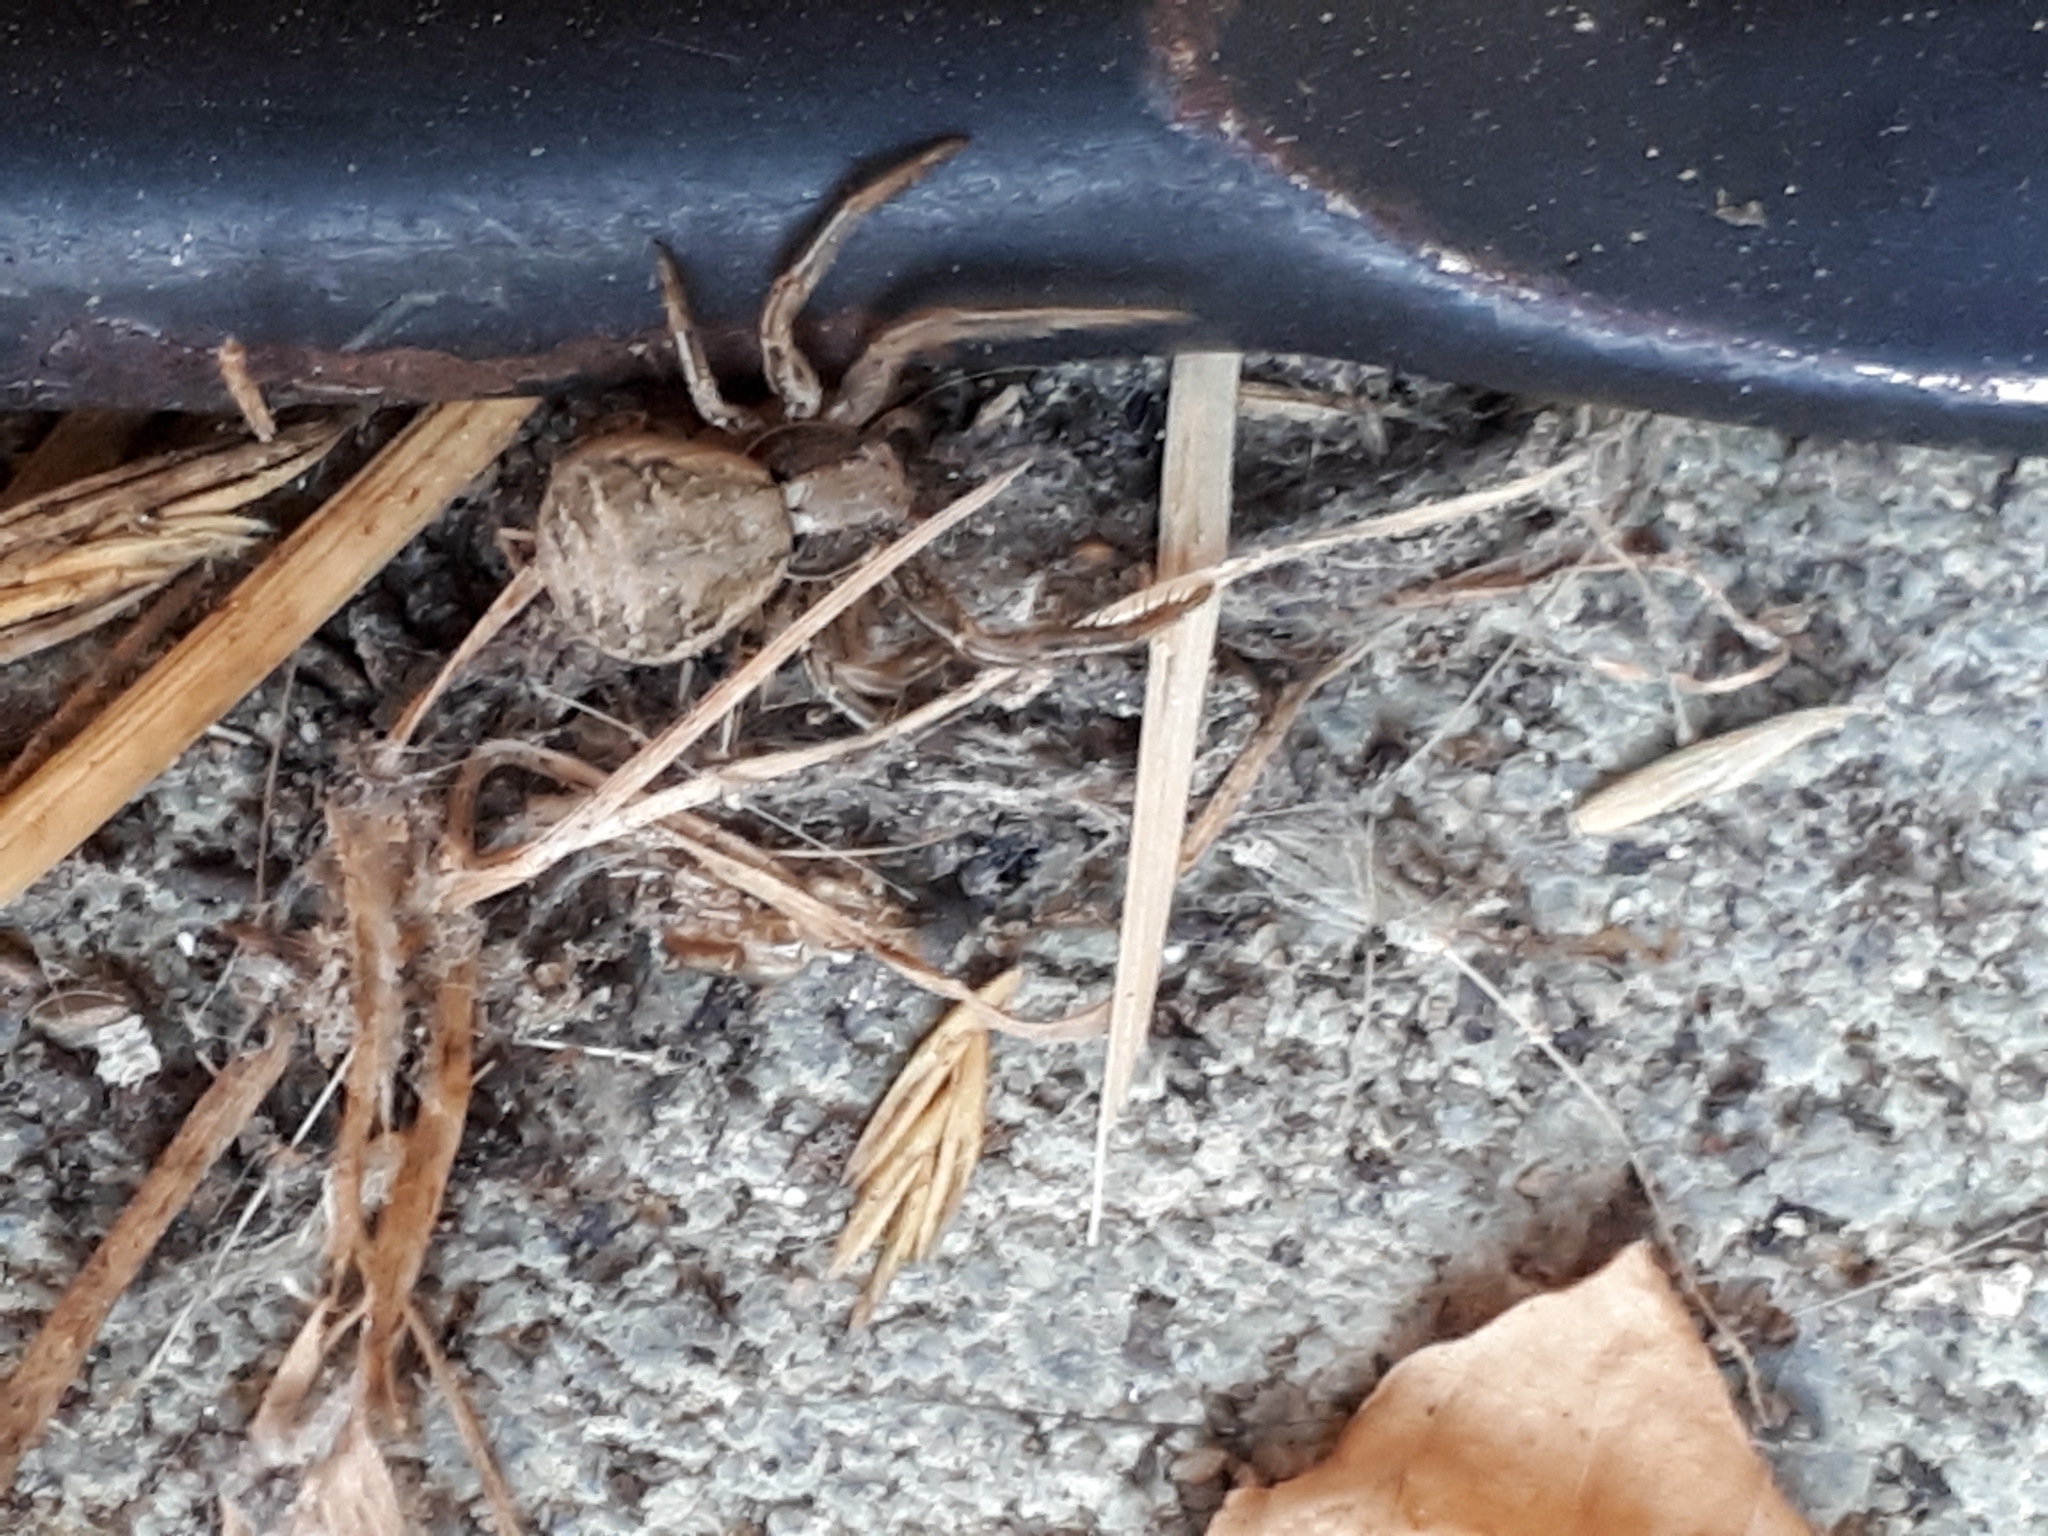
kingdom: Animalia
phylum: Arthropoda
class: Arachnida
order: Araneae
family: Thomisidae
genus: Xysticus
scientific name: Xysticus
